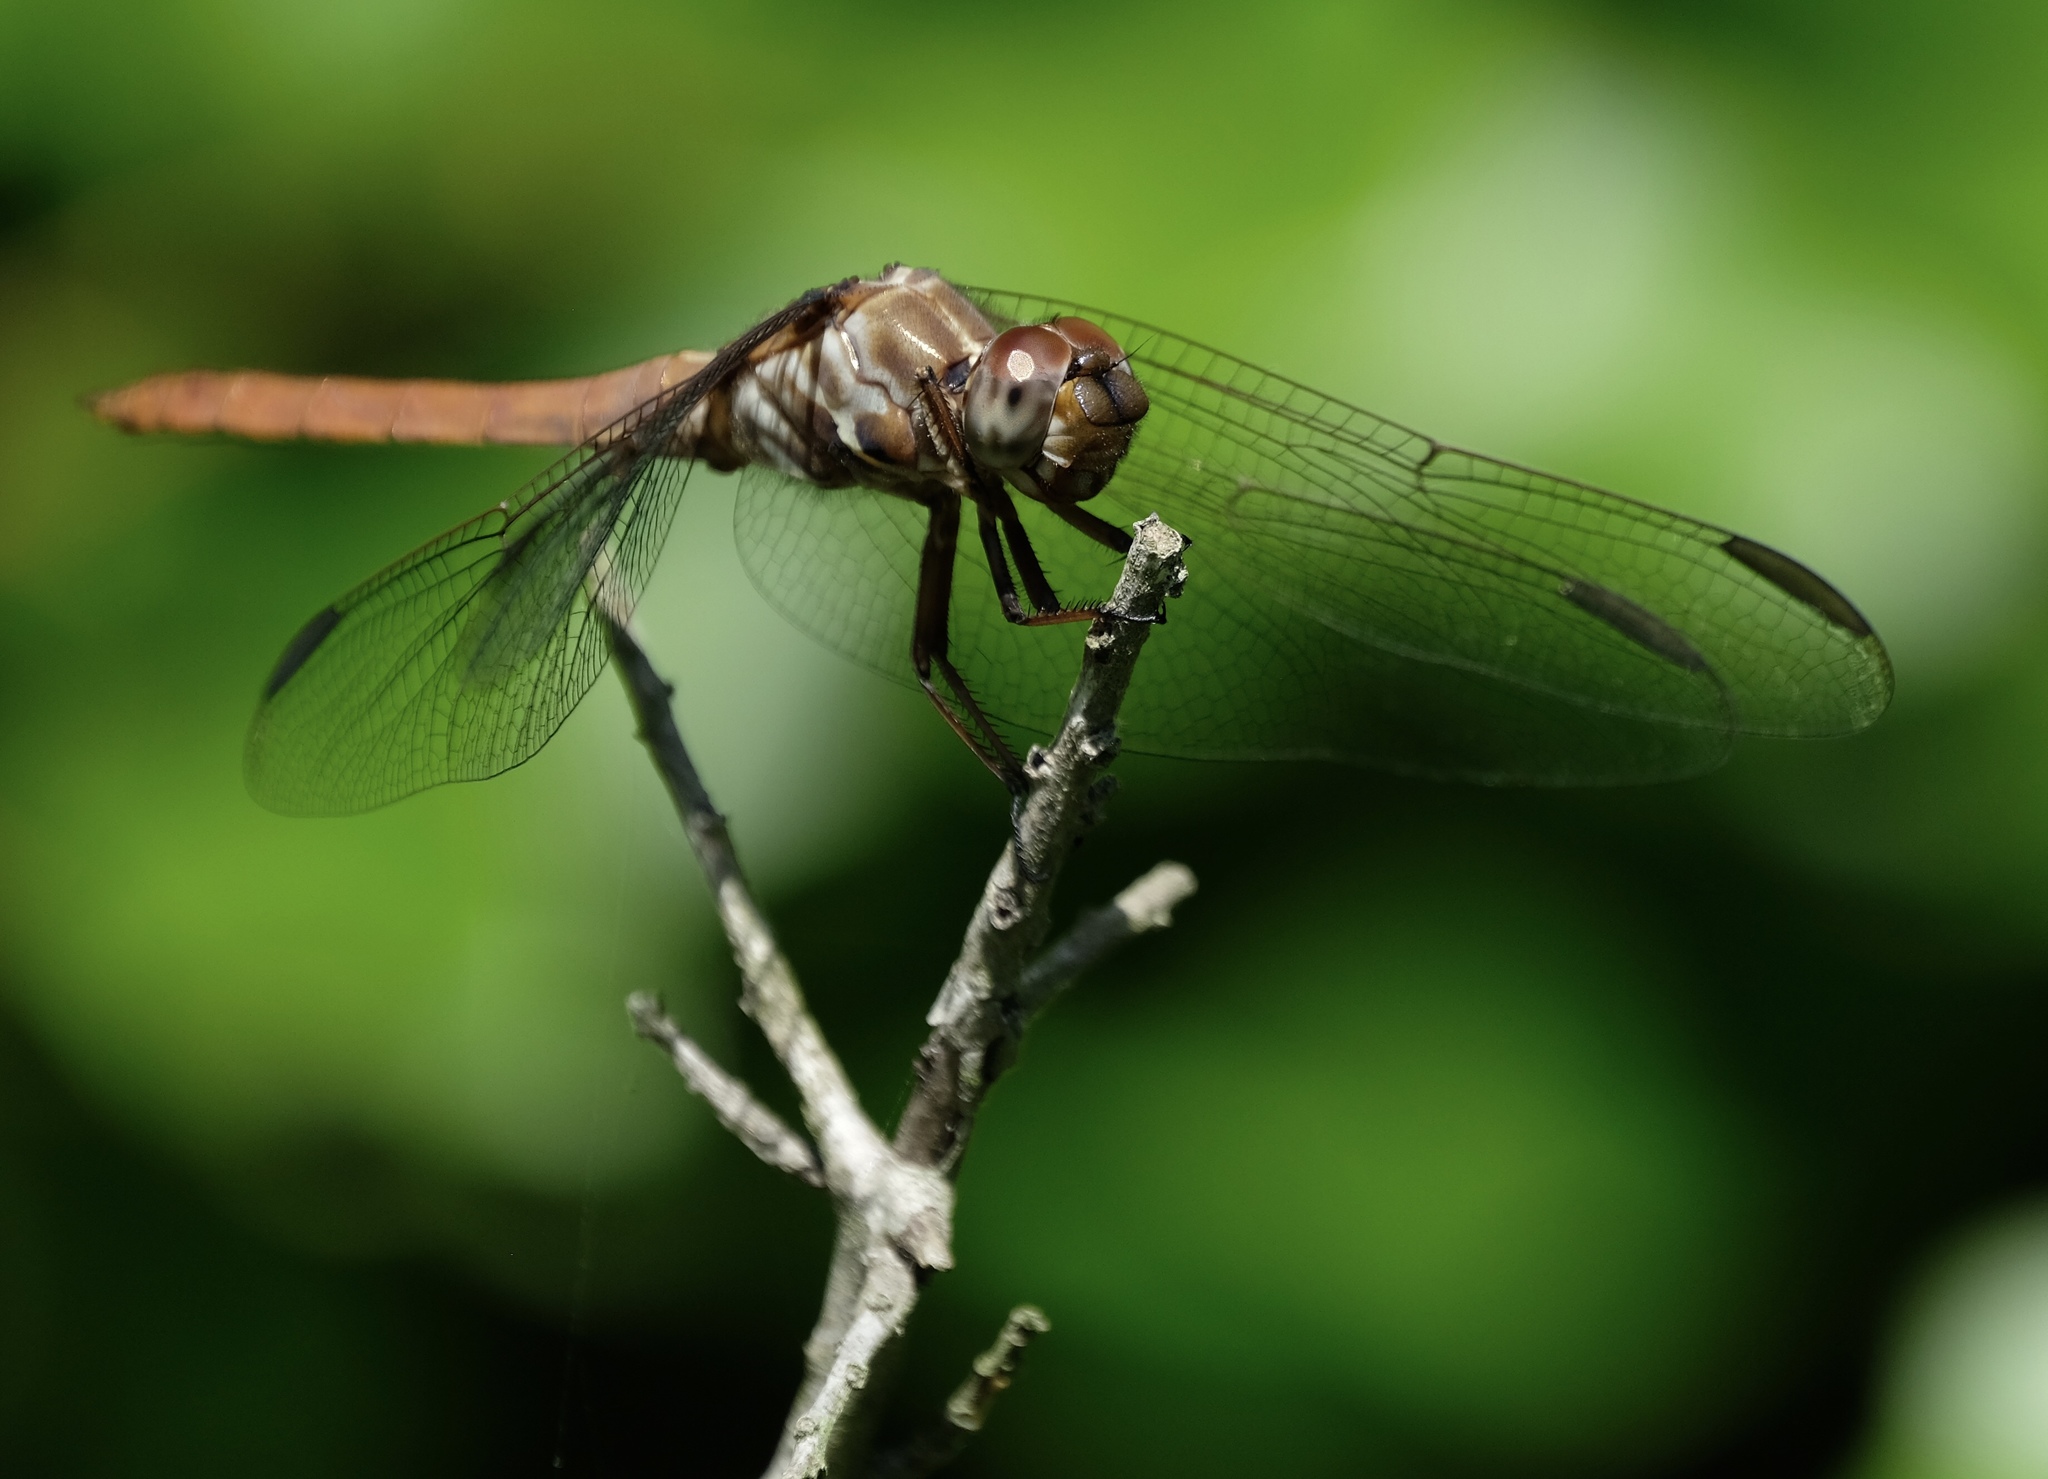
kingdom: Animalia
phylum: Arthropoda
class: Insecta
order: Odonata
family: Libellulidae
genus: Orthemis
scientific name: Orthemis ferruginea
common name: Roseate skimmer
